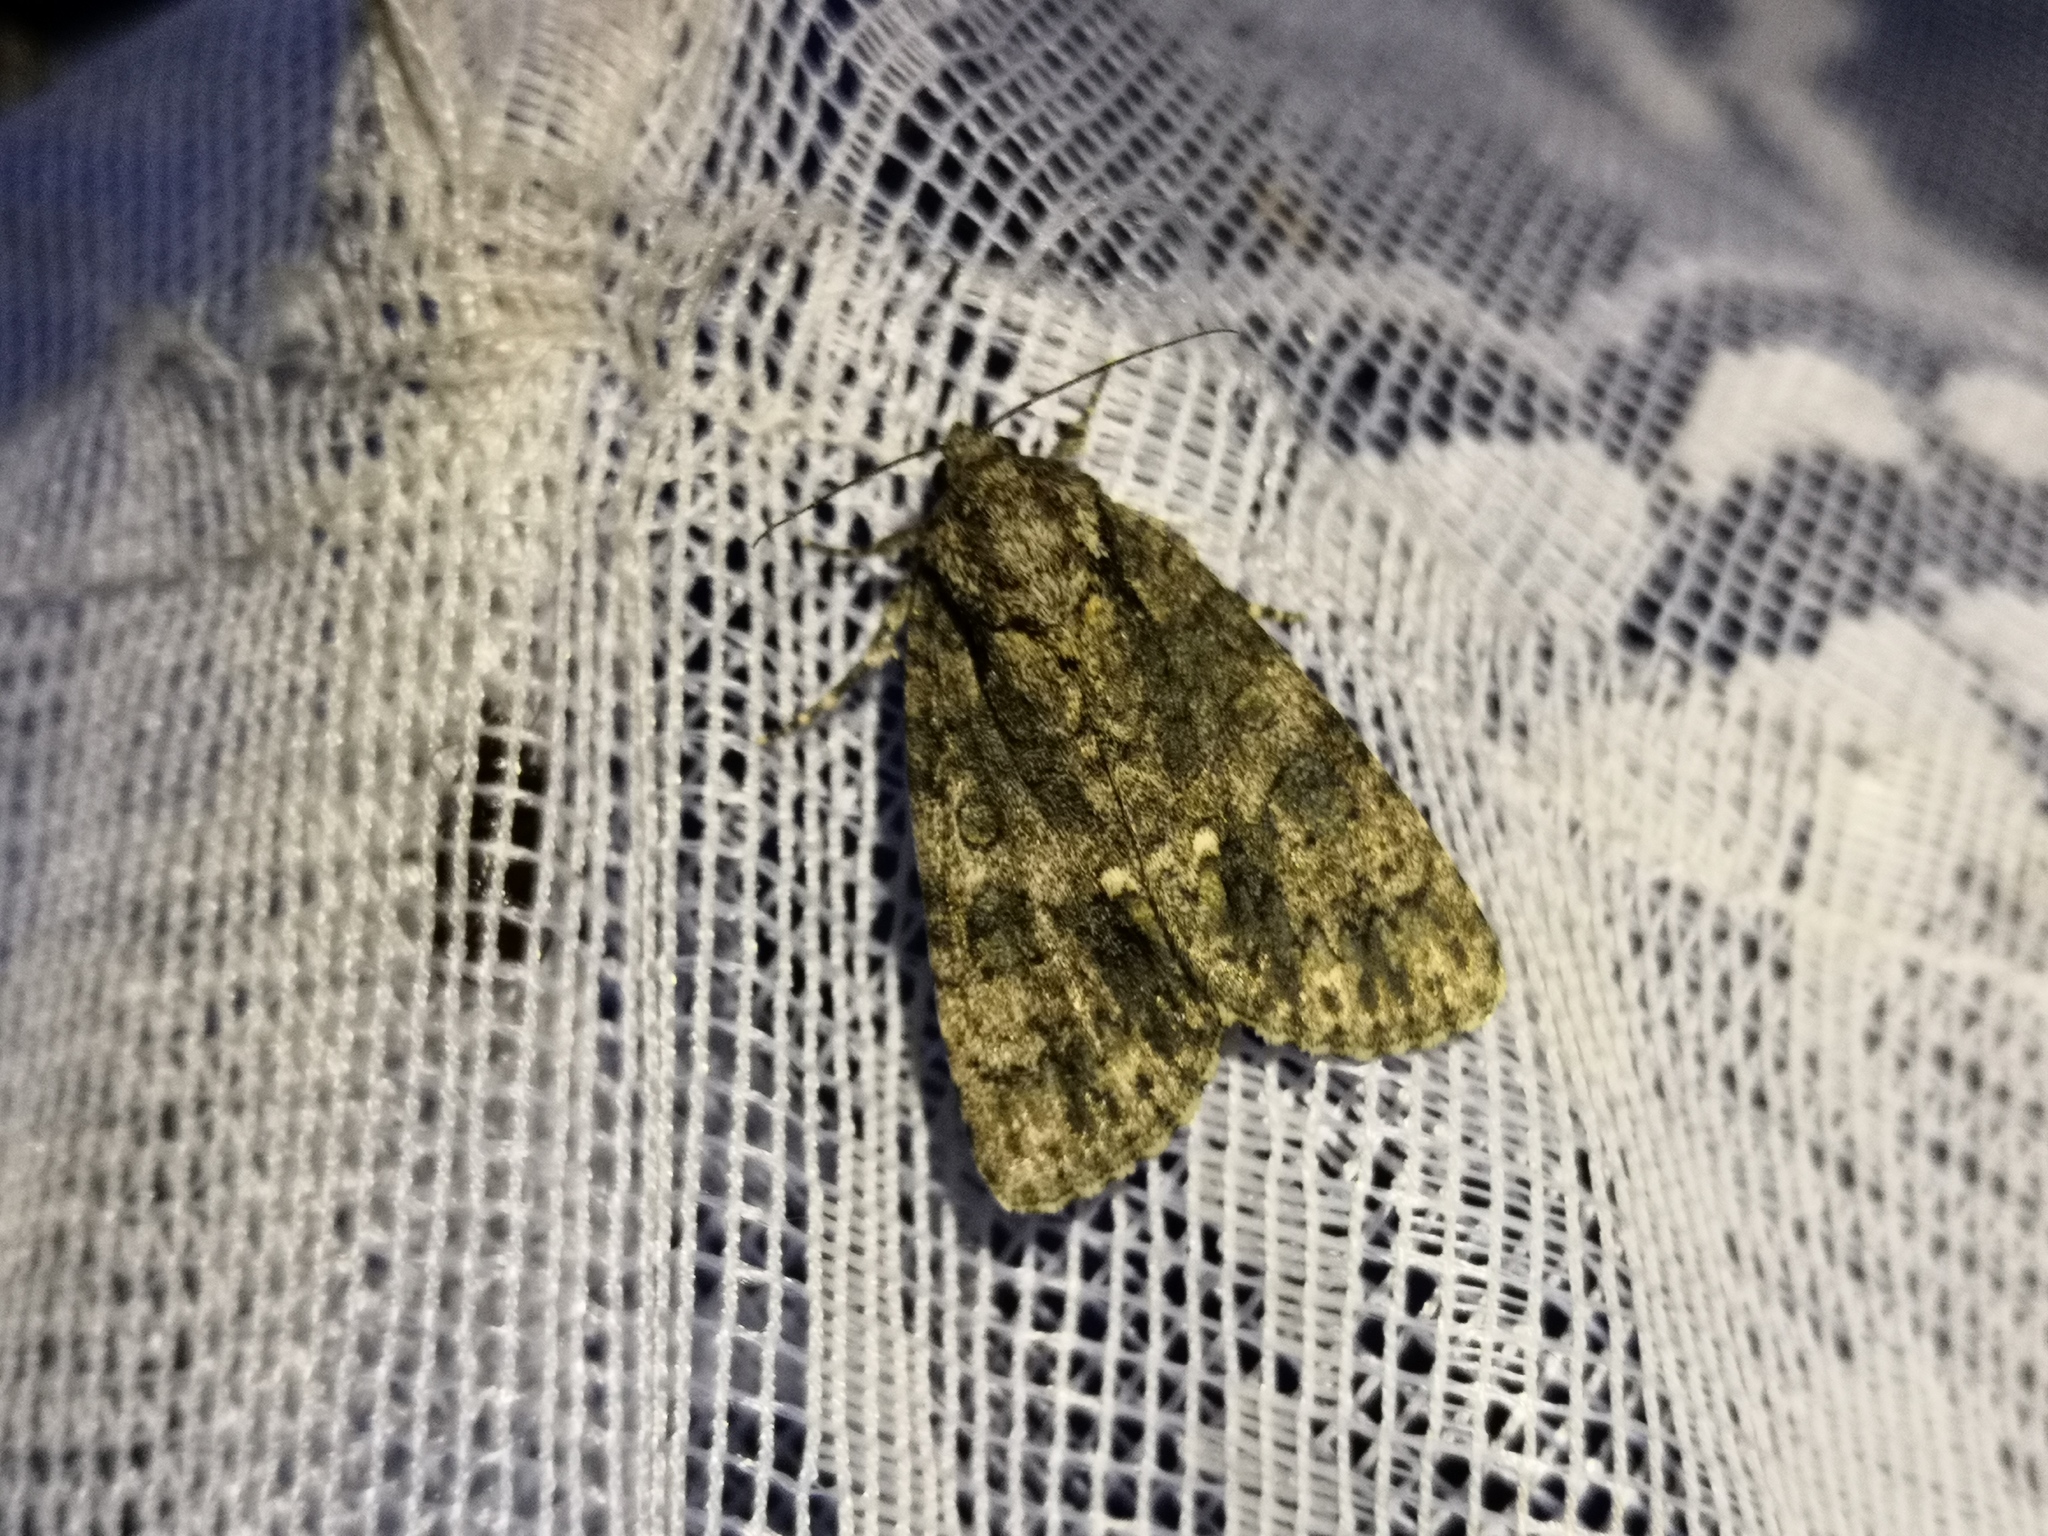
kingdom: Animalia
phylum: Arthropoda
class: Insecta
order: Lepidoptera
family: Noctuidae
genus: Acronicta
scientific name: Acronicta rumicis
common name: Knot grass
